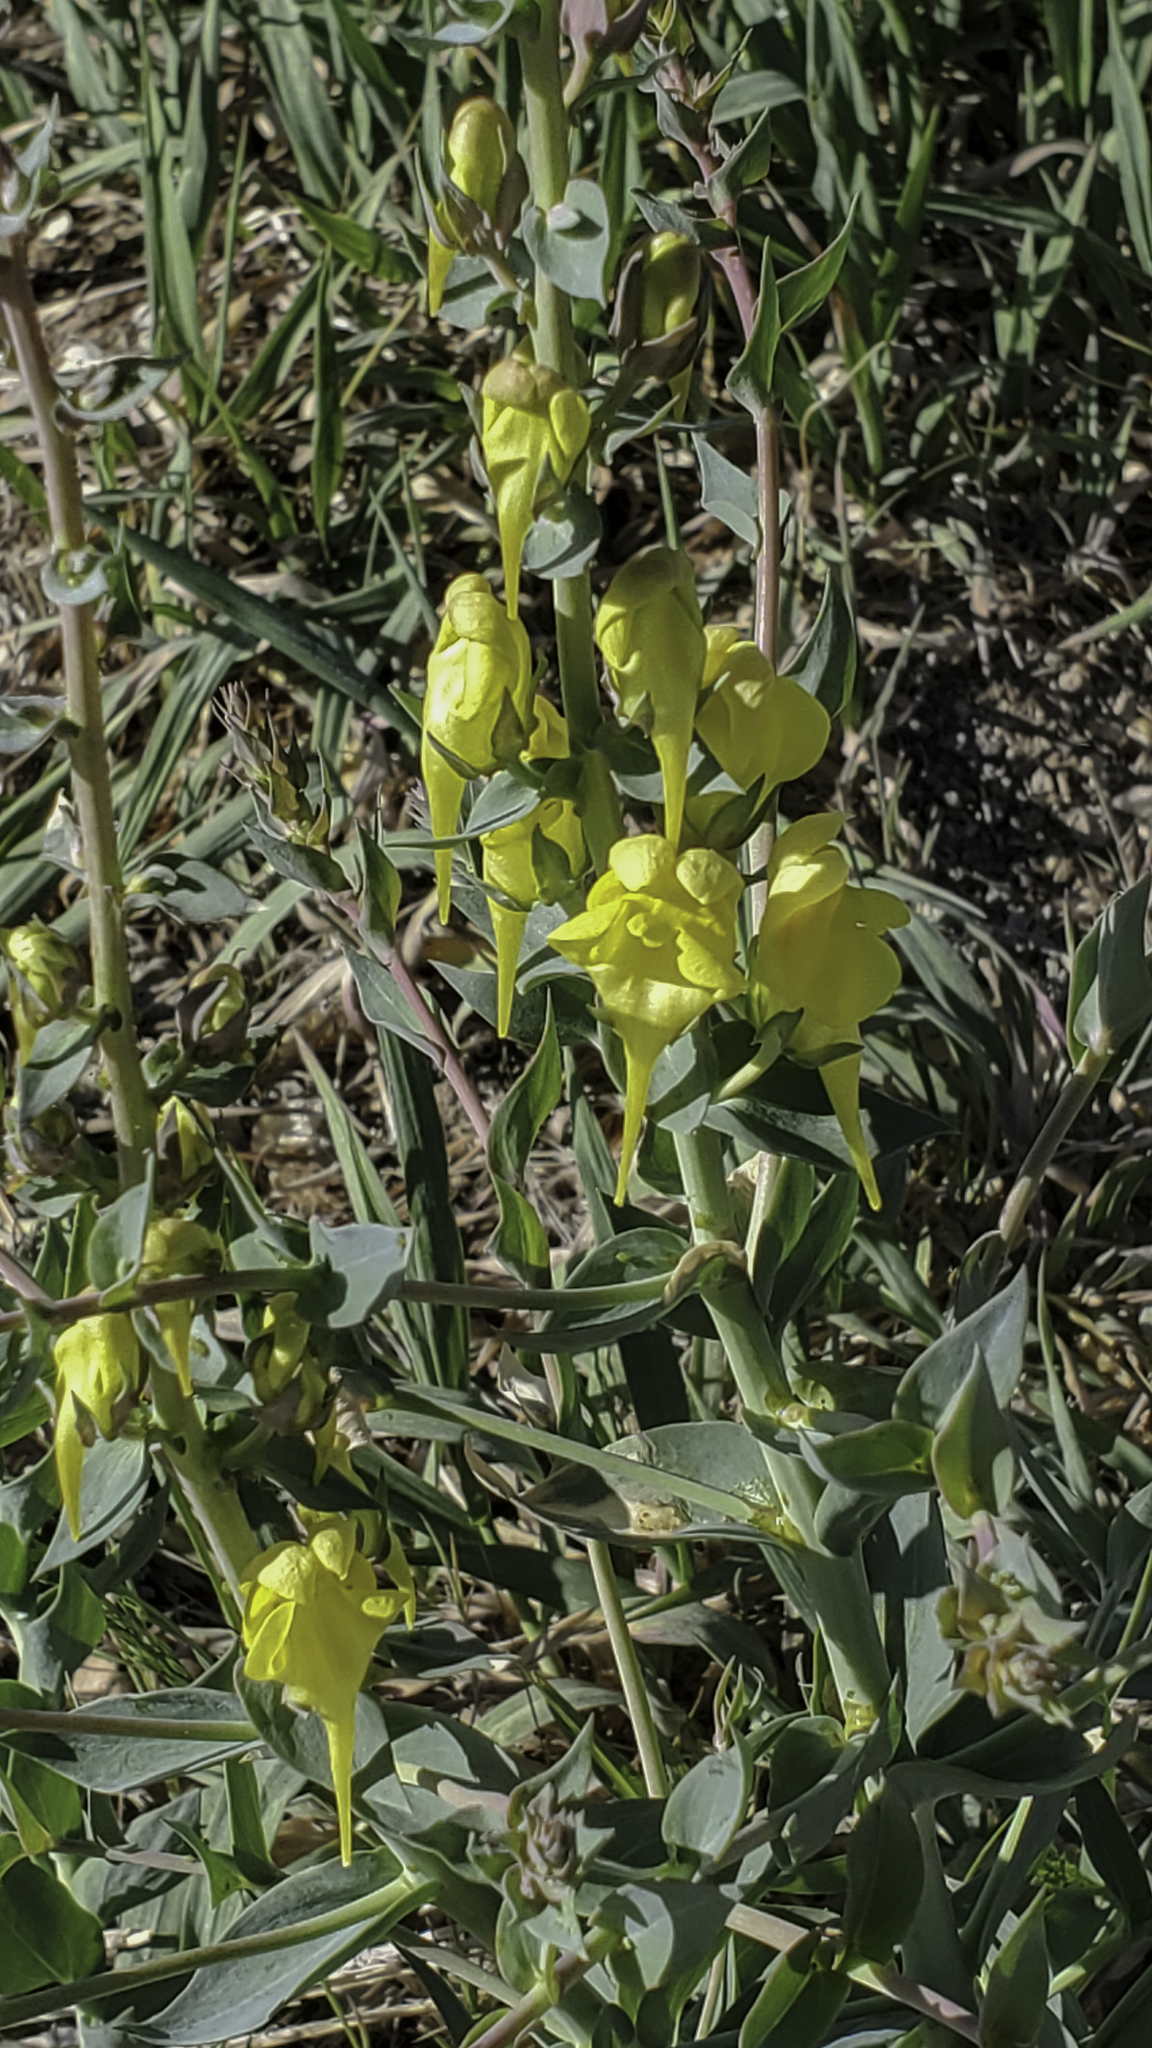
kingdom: Plantae
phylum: Tracheophyta
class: Magnoliopsida
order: Lamiales
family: Plantaginaceae
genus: Linaria
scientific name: Linaria dalmatica
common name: Dalmatian toadflax
